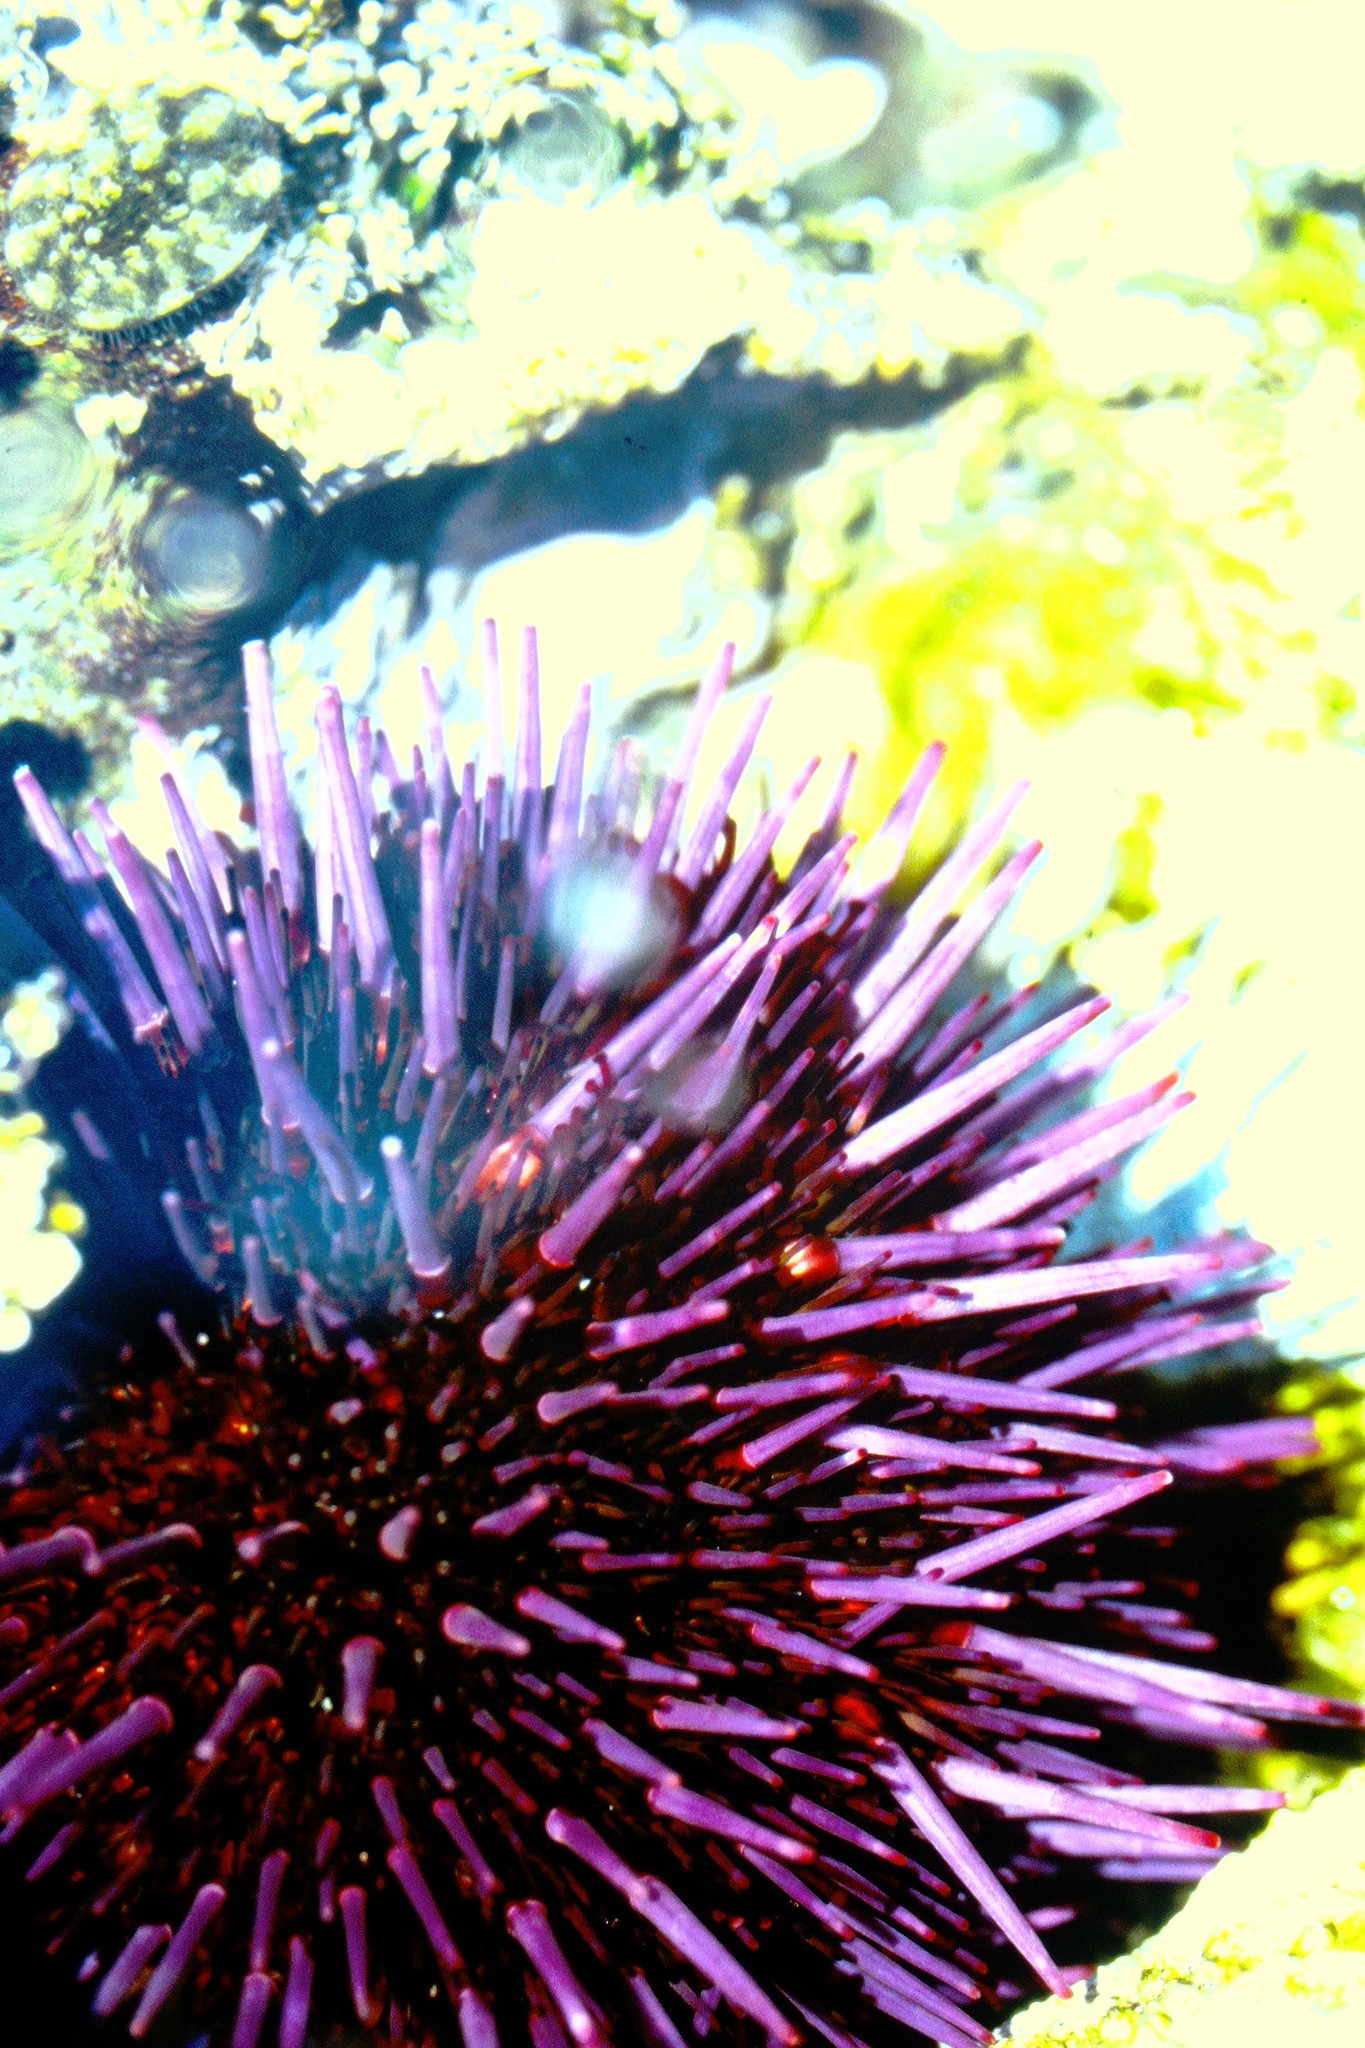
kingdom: Animalia
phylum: Echinodermata
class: Echinoidea
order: Camarodonta
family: Strongylocentrotidae
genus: Strongylocentrotus
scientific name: Strongylocentrotus purpuratus
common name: Purple sea urchin
